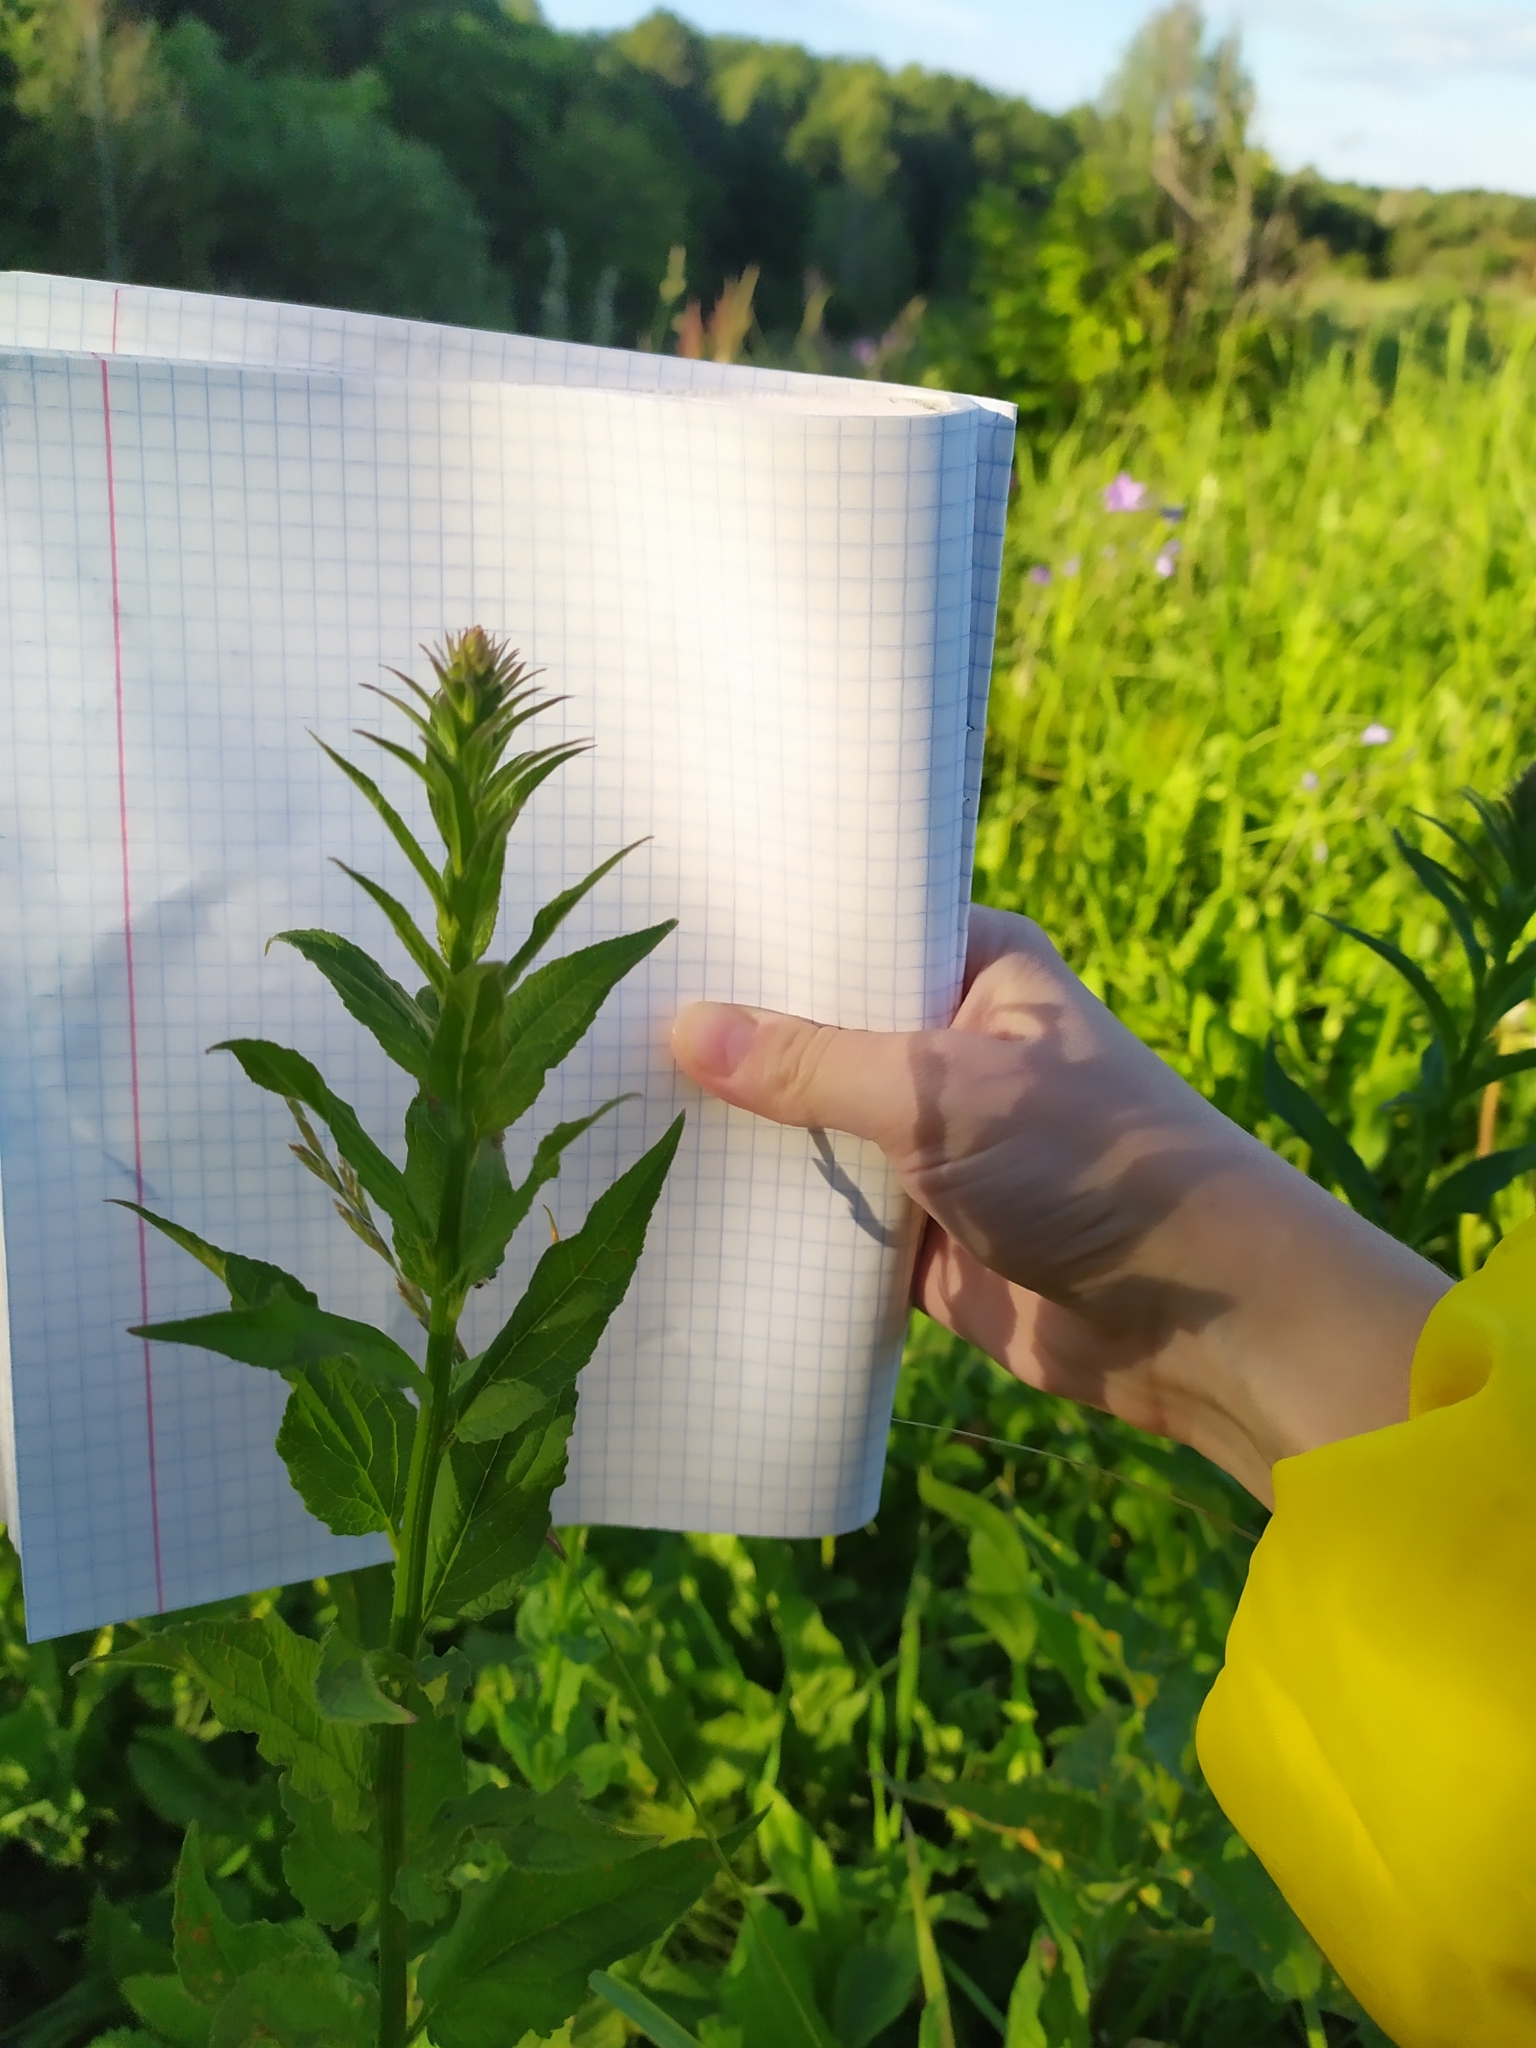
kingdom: Plantae
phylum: Tracheophyta
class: Magnoliopsida
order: Asterales
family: Campanulaceae
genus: Campanula
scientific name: Campanula rapunculoides
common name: Creeping bellflower
